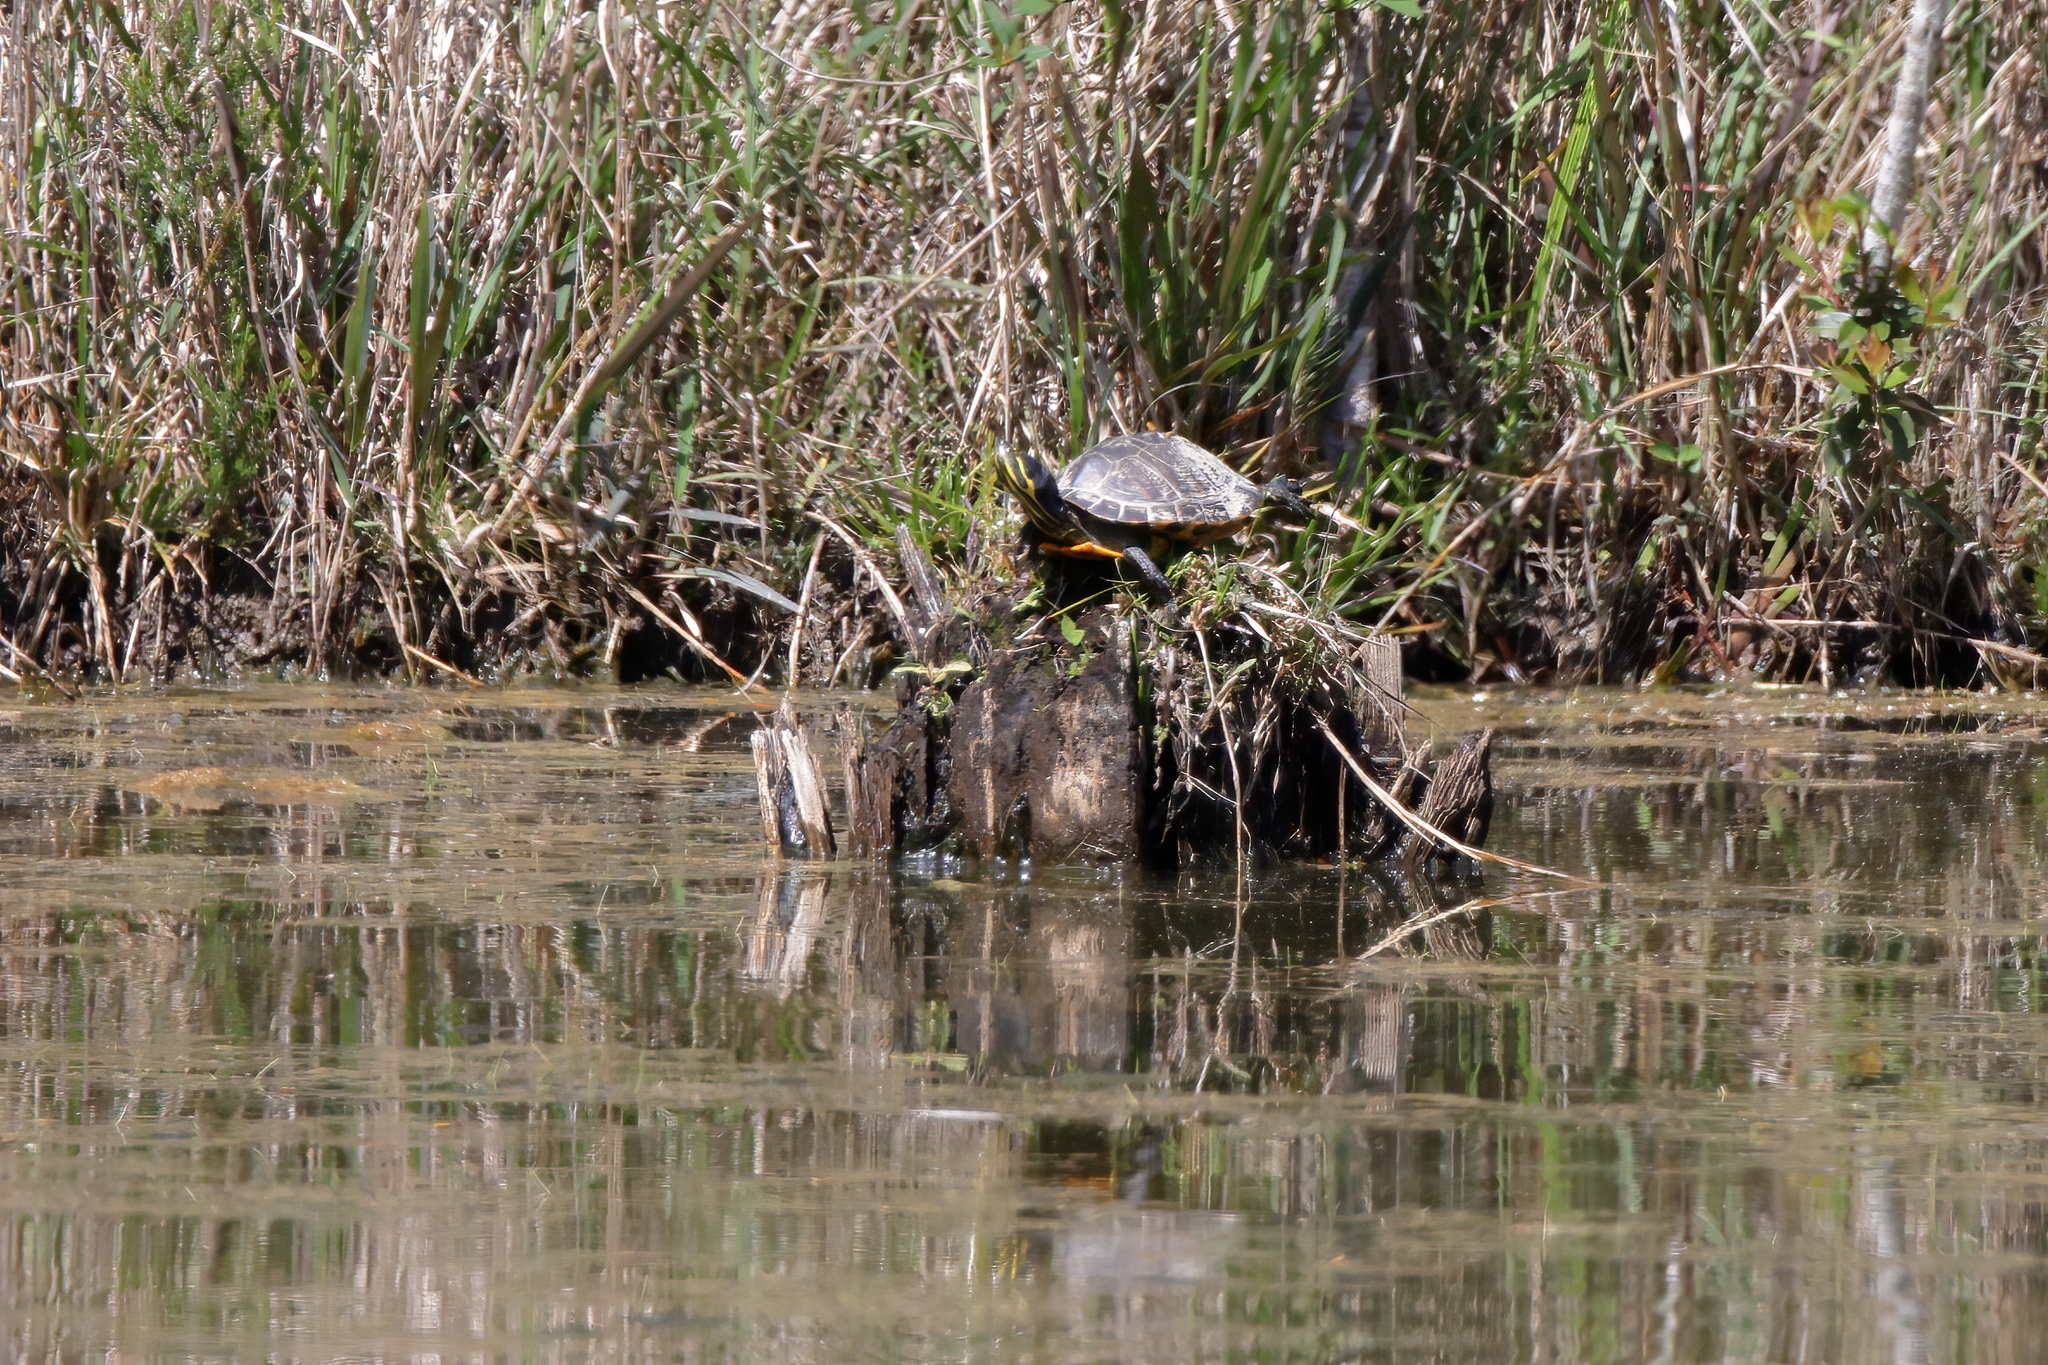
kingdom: Animalia
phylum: Chordata
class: Testudines
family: Emydidae
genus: Trachemys
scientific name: Trachemys scripta
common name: Slider
